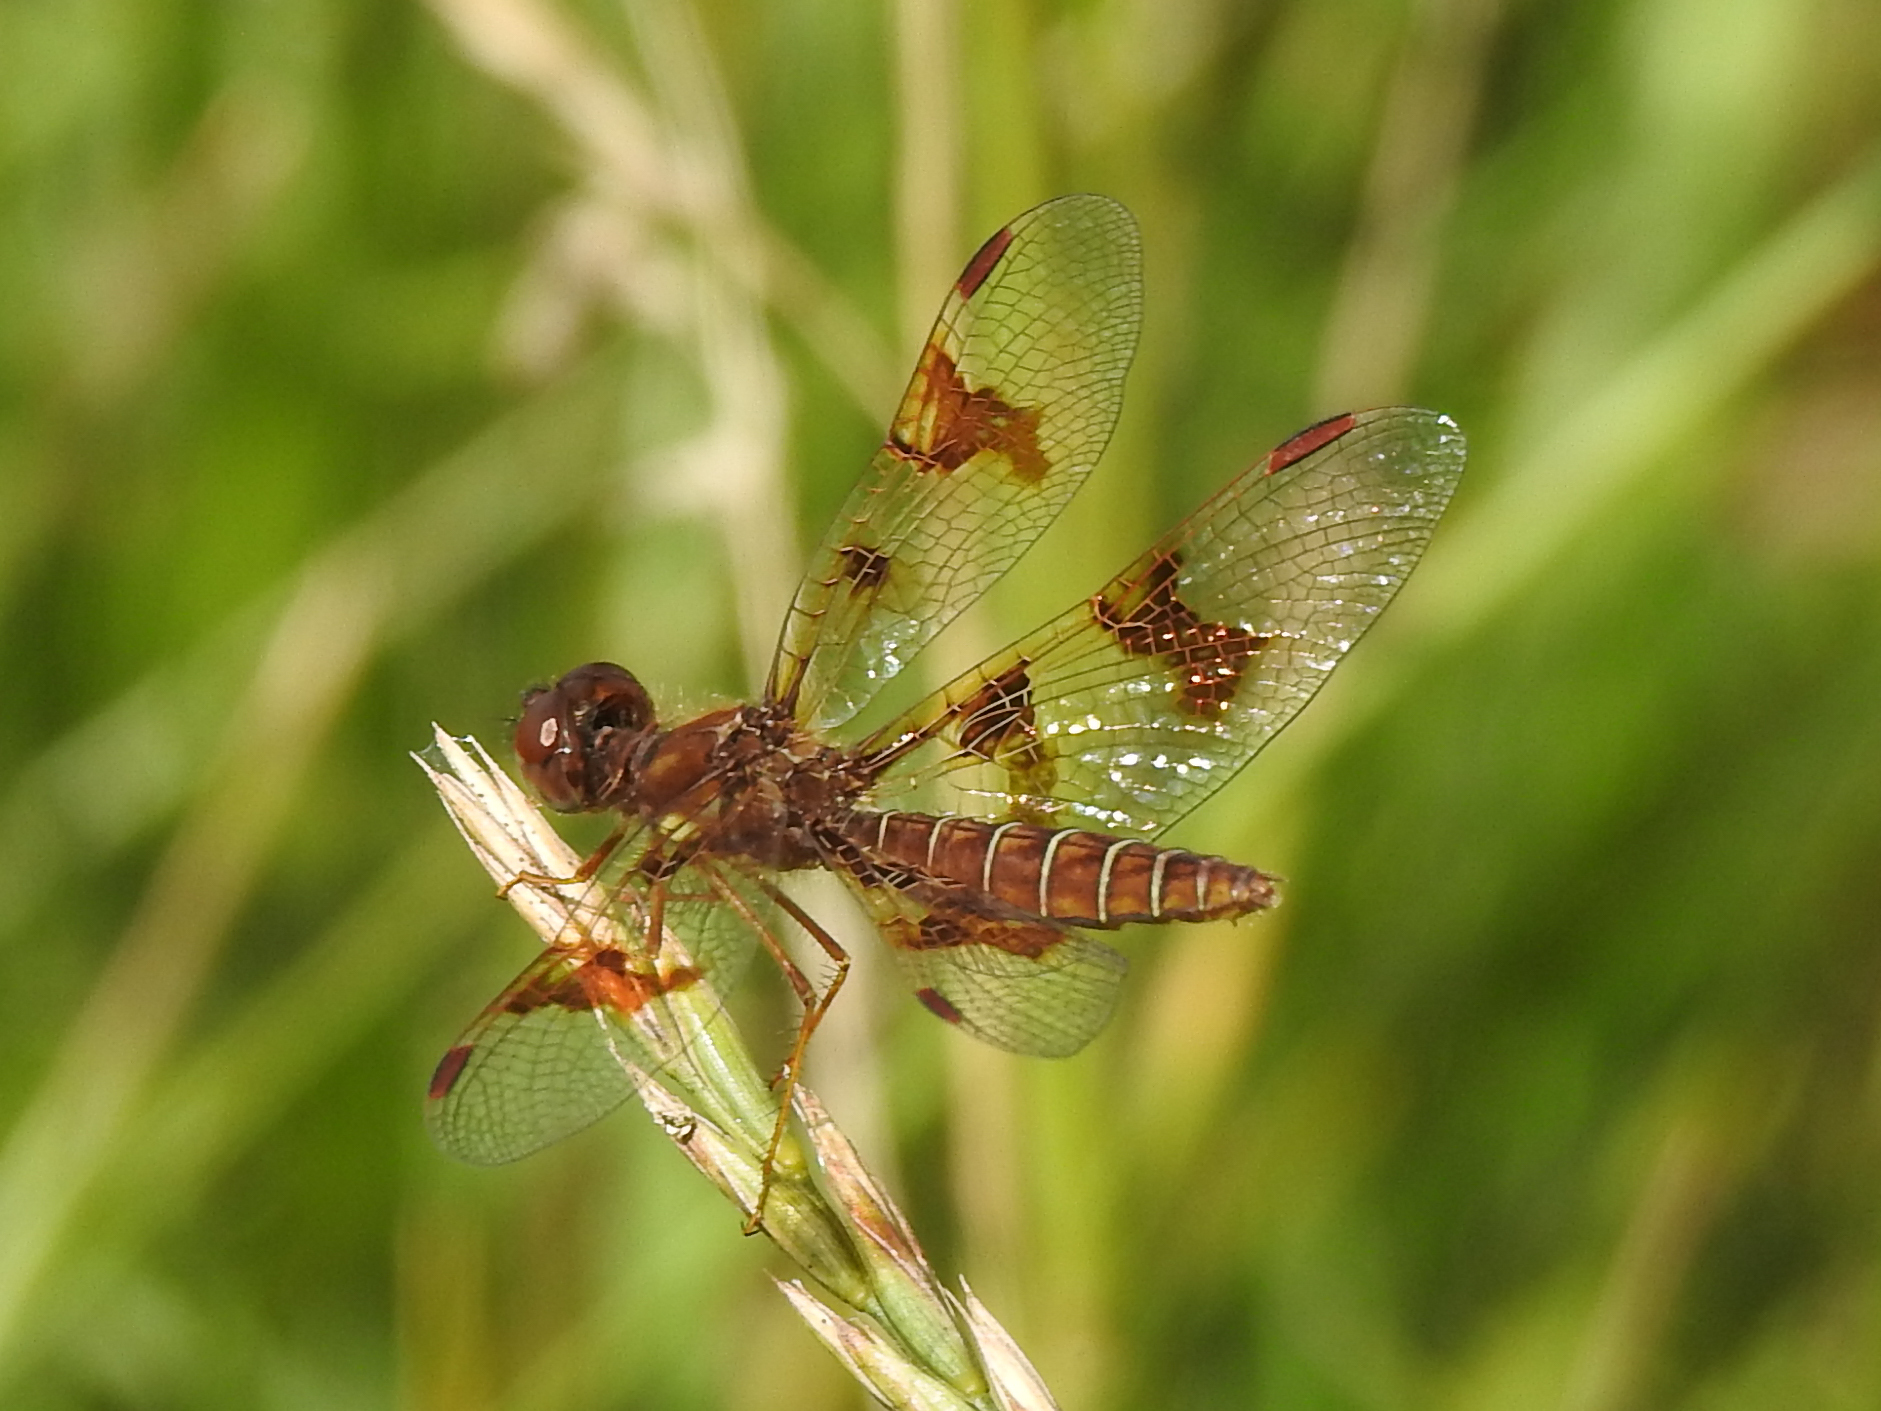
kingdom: Animalia
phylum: Arthropoda
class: Insecta
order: Odonata
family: Libellulidae
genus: Perithemis
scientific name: Perithemis tenera
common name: Eastern amberwing
